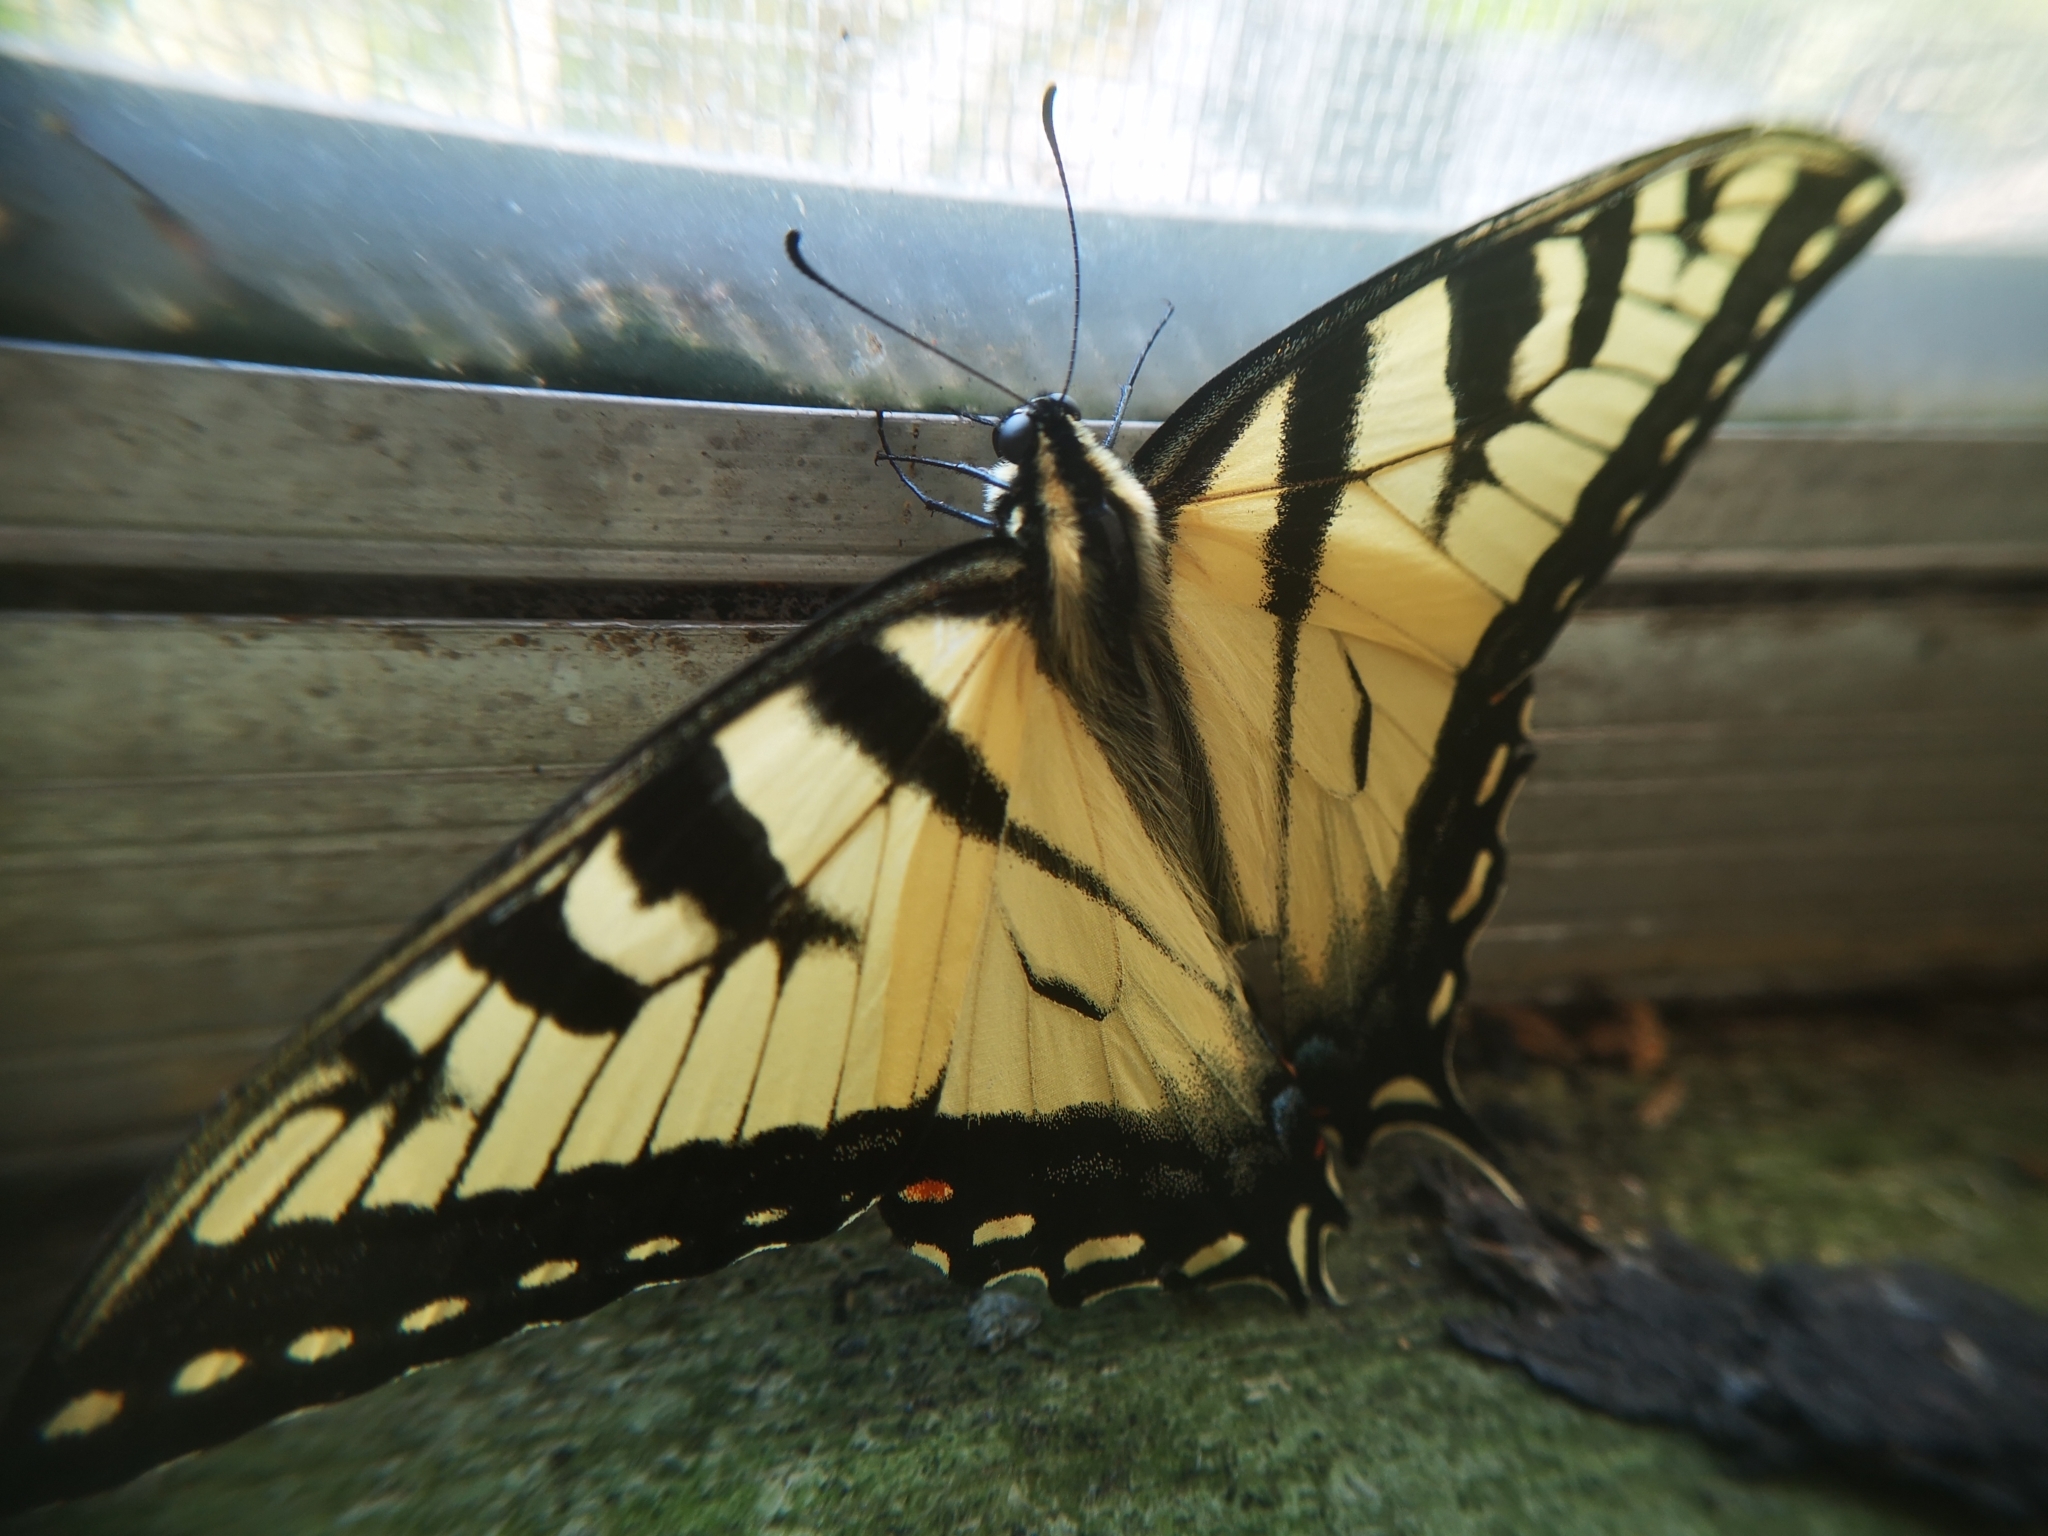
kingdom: Animalia
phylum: Arthropoda
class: Insecta
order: Lepidoptera
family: Papilionidae
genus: Papilio
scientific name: Papilio
